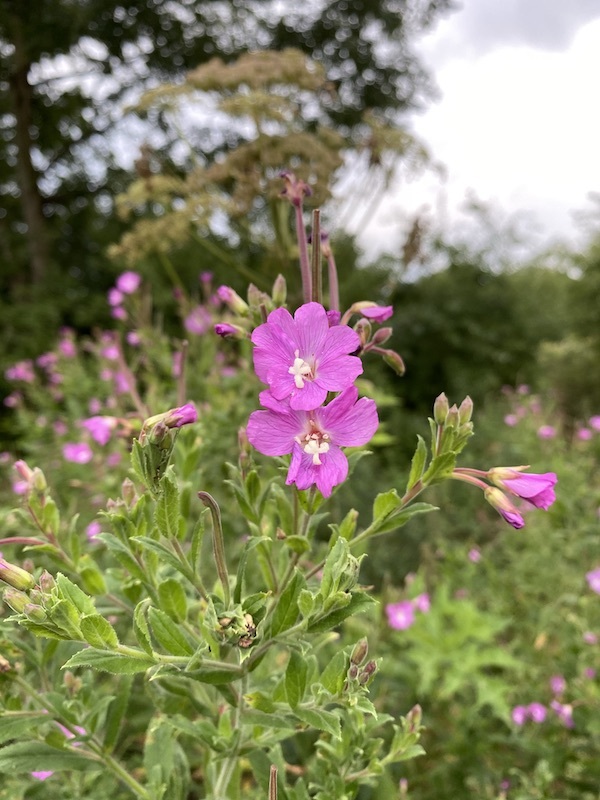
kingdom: Plantae
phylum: Tracheophyta
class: Magnoliopsida
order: Myrtales
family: Onagraceae
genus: Epilobium
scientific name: Epilobium hirsutum
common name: Great willowherb
